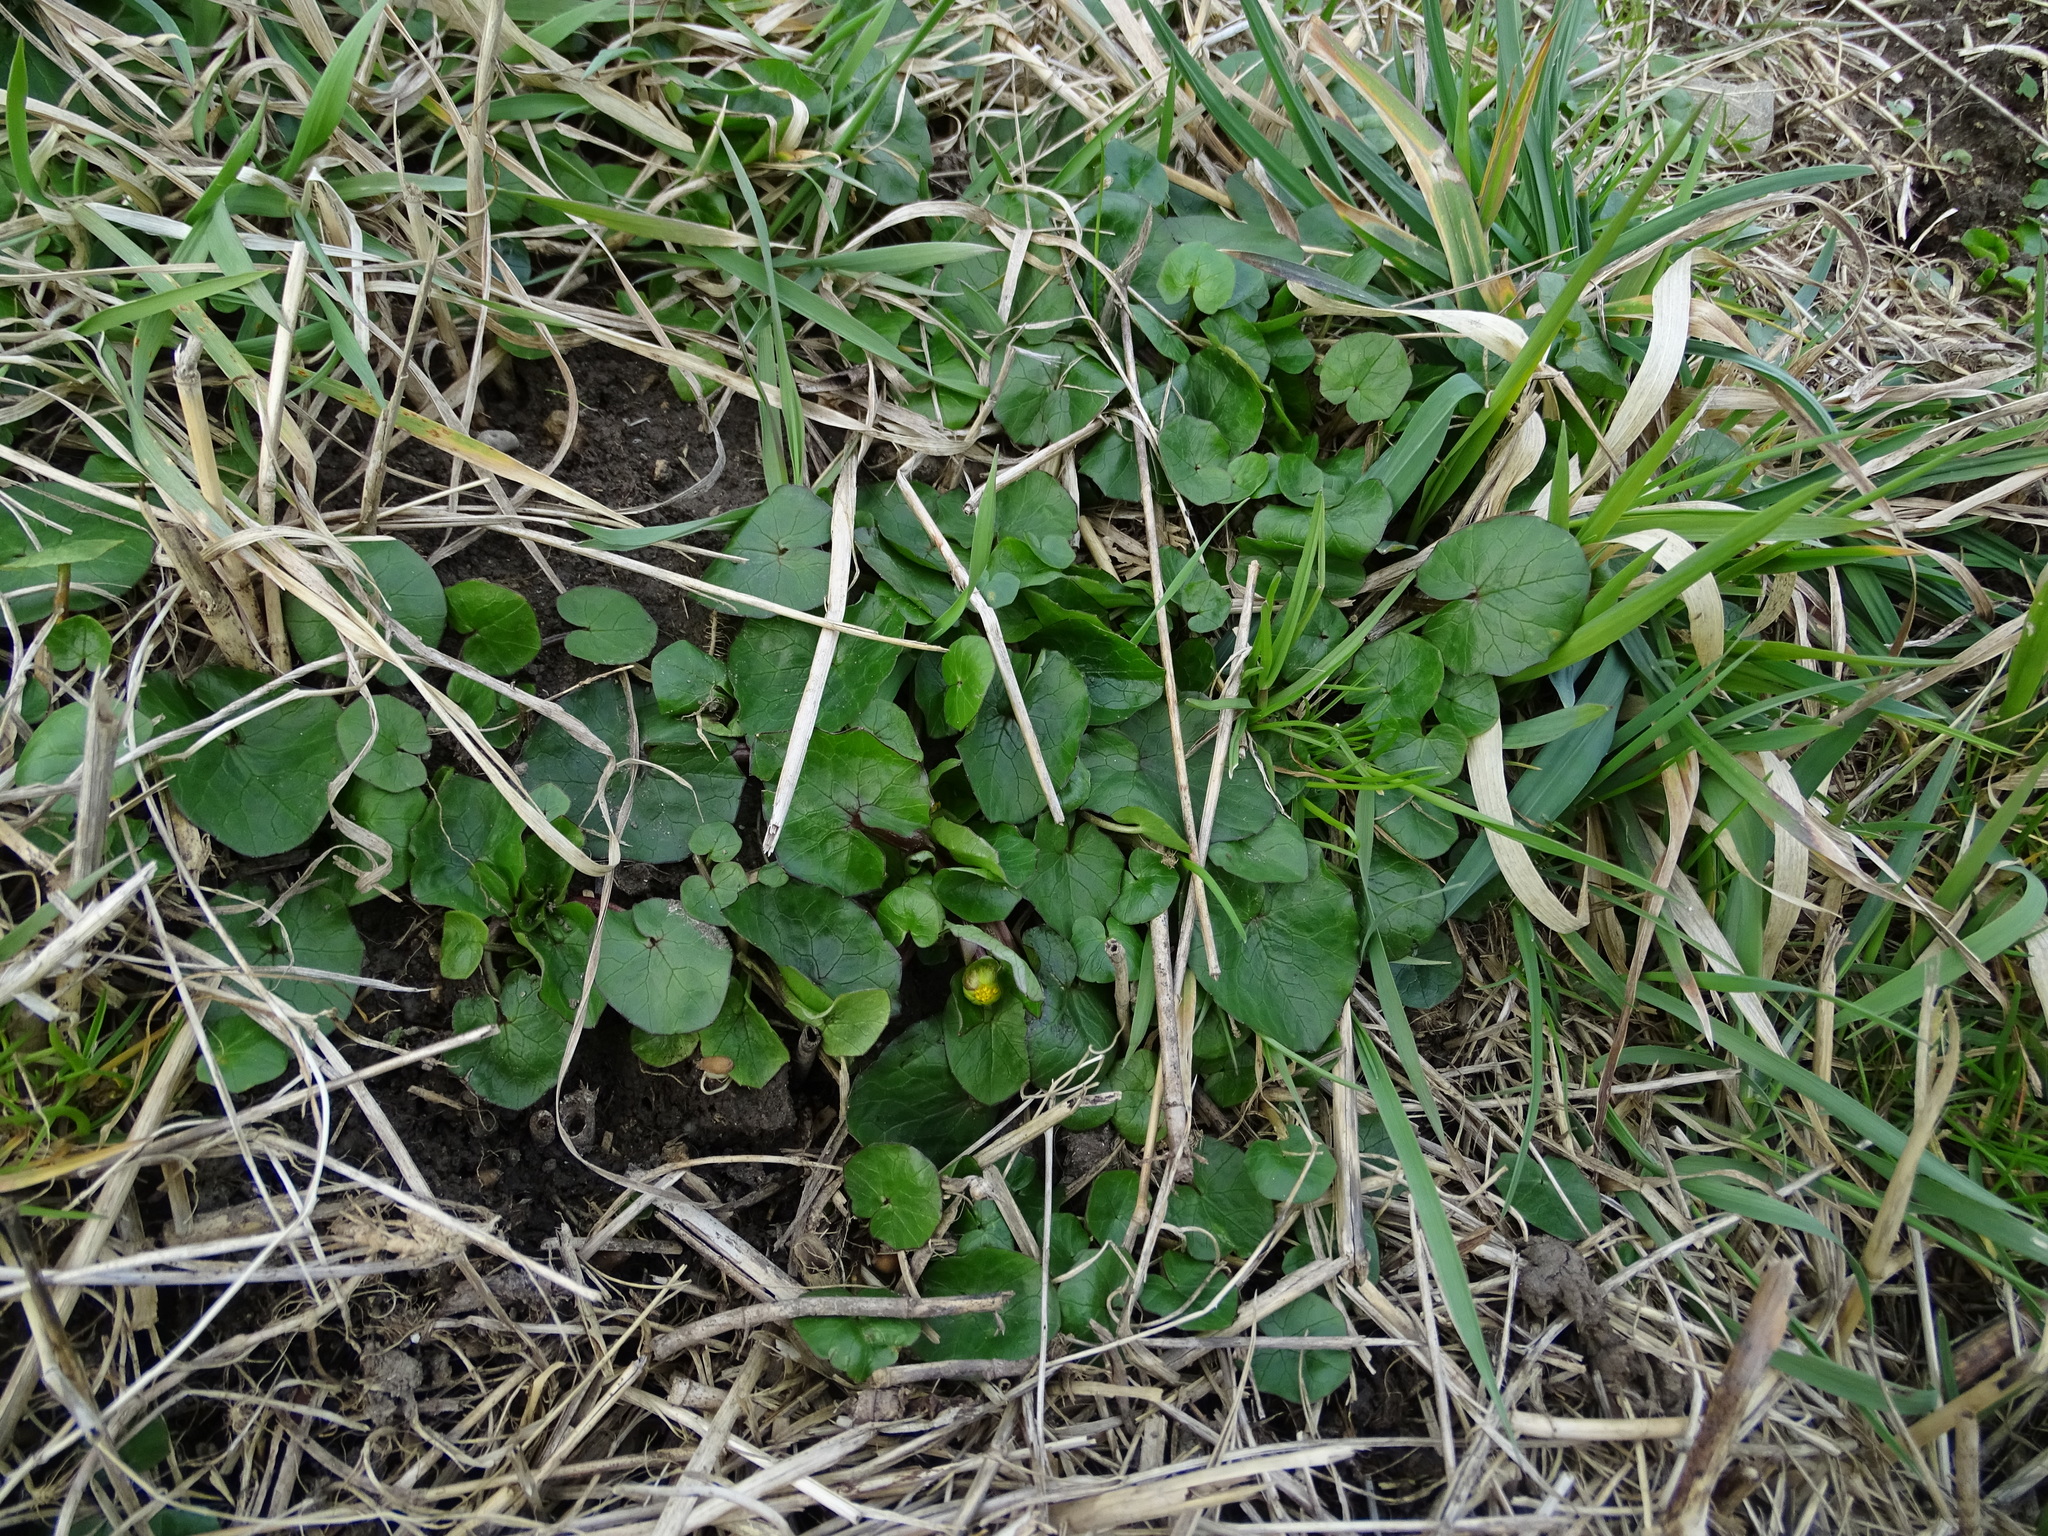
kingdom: Plantae
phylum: Tracheophyta
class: Magnoliopsida
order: Ranunculales
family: Ranunculaceae
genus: Ficaria
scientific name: Ficaria verna
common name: Lesser celandine
